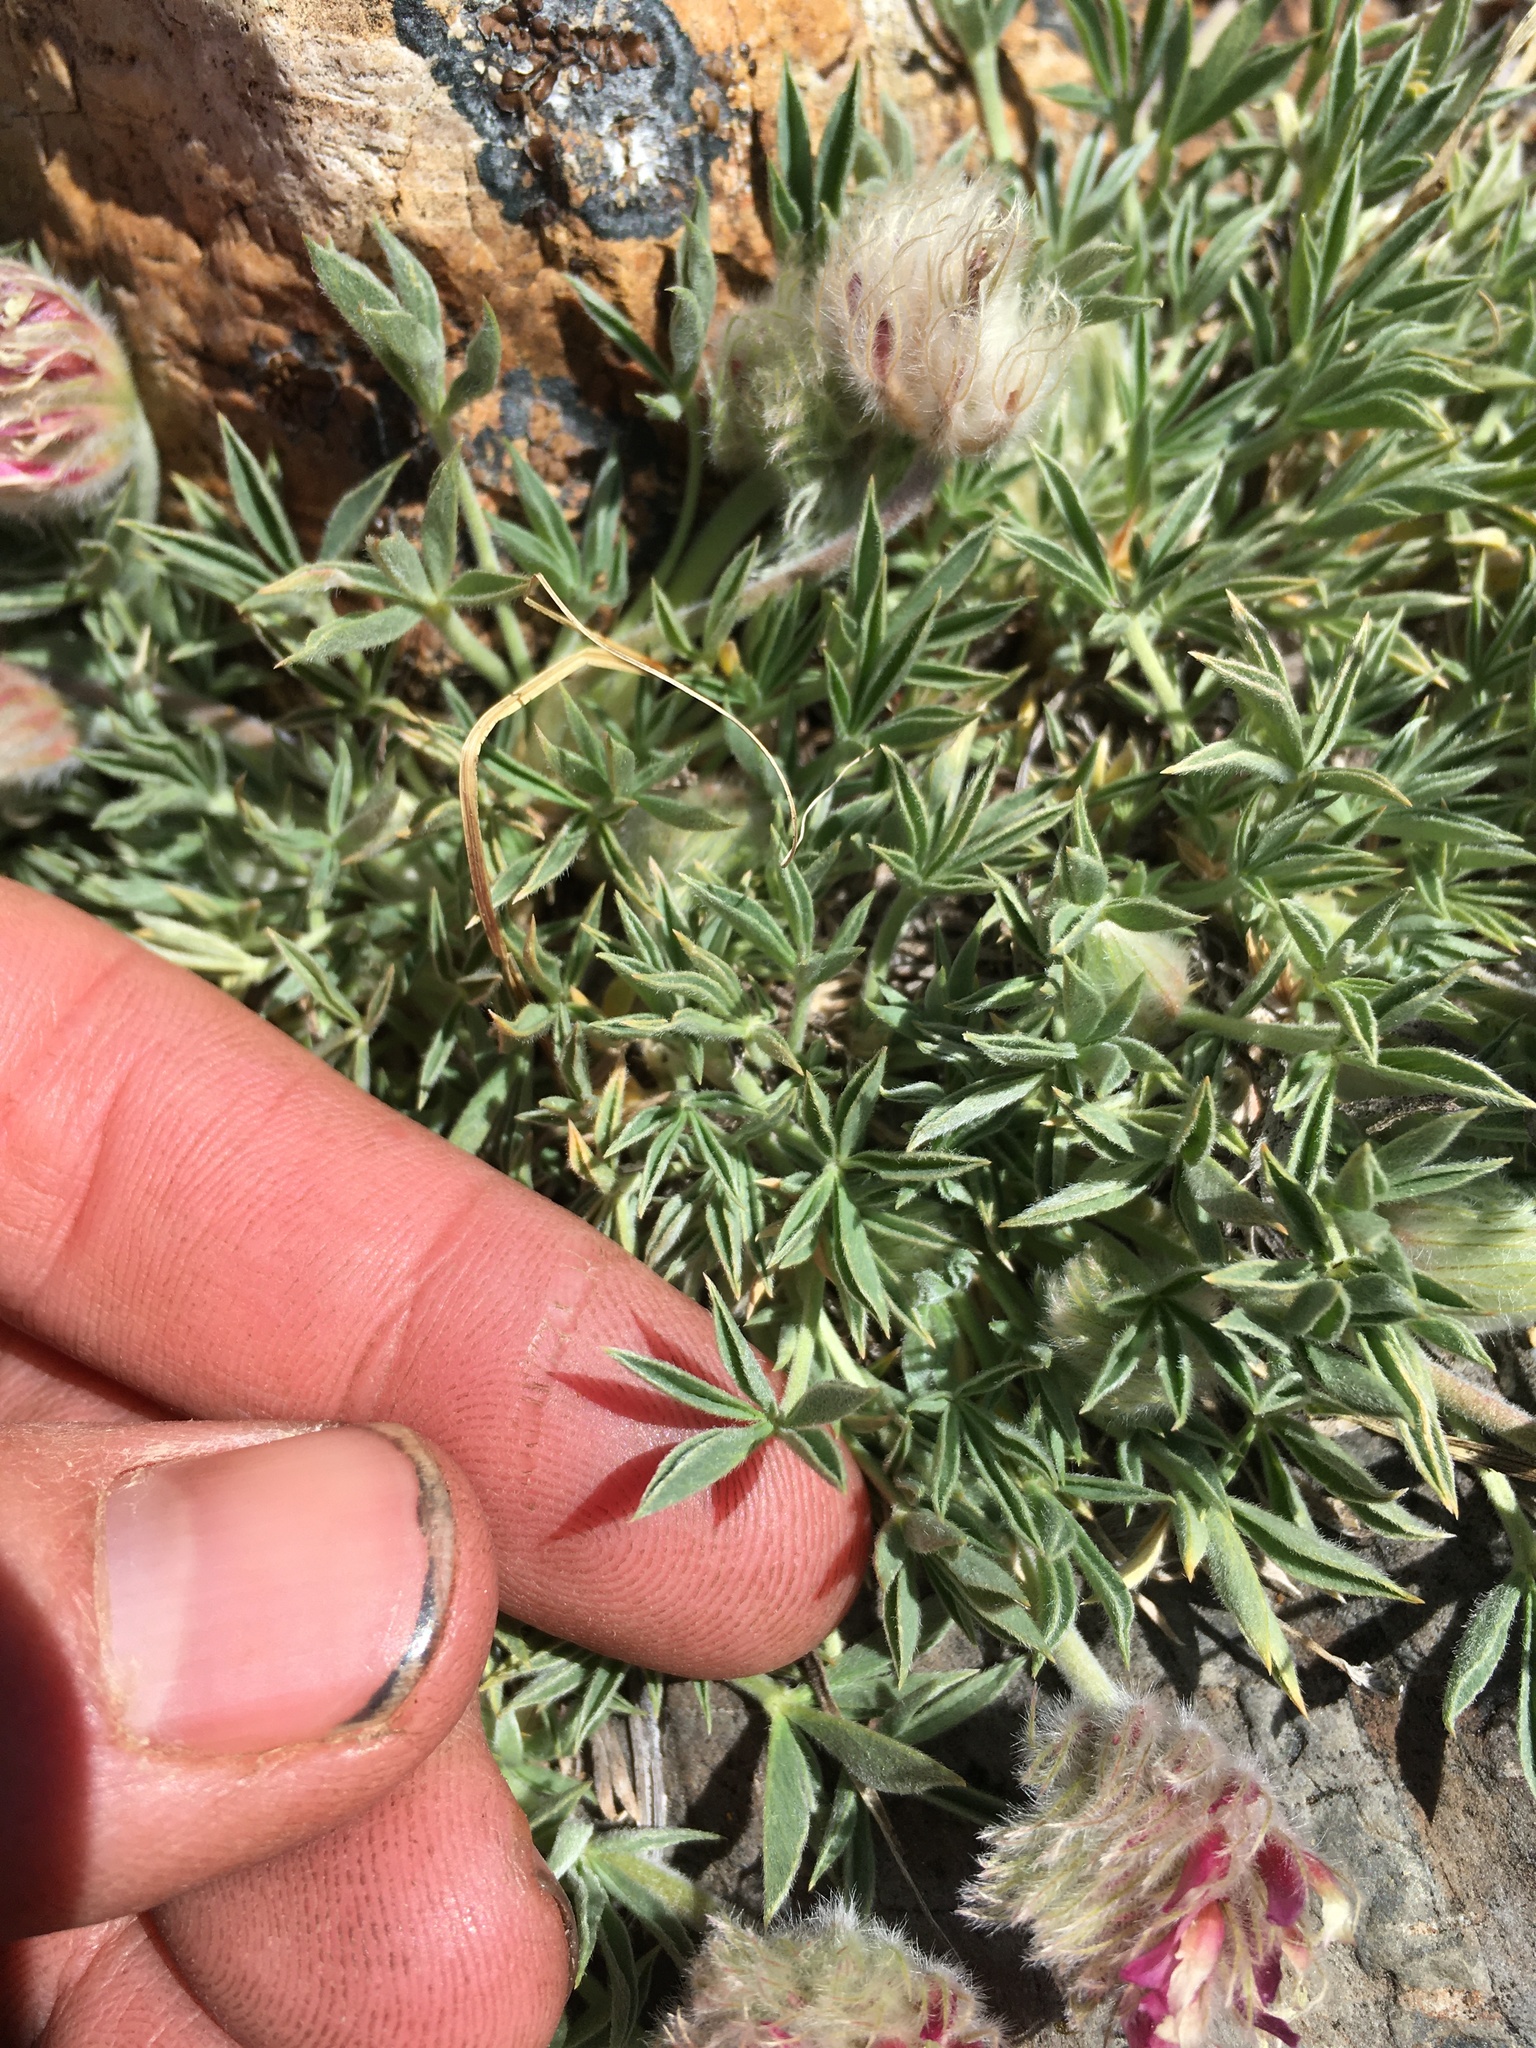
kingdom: Plantae
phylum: Tracheophyta
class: Magnoliopsida
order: Fabales
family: Fabaceae
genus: Trifolium
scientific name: Trifolium andersonii
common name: Anderson's clover
